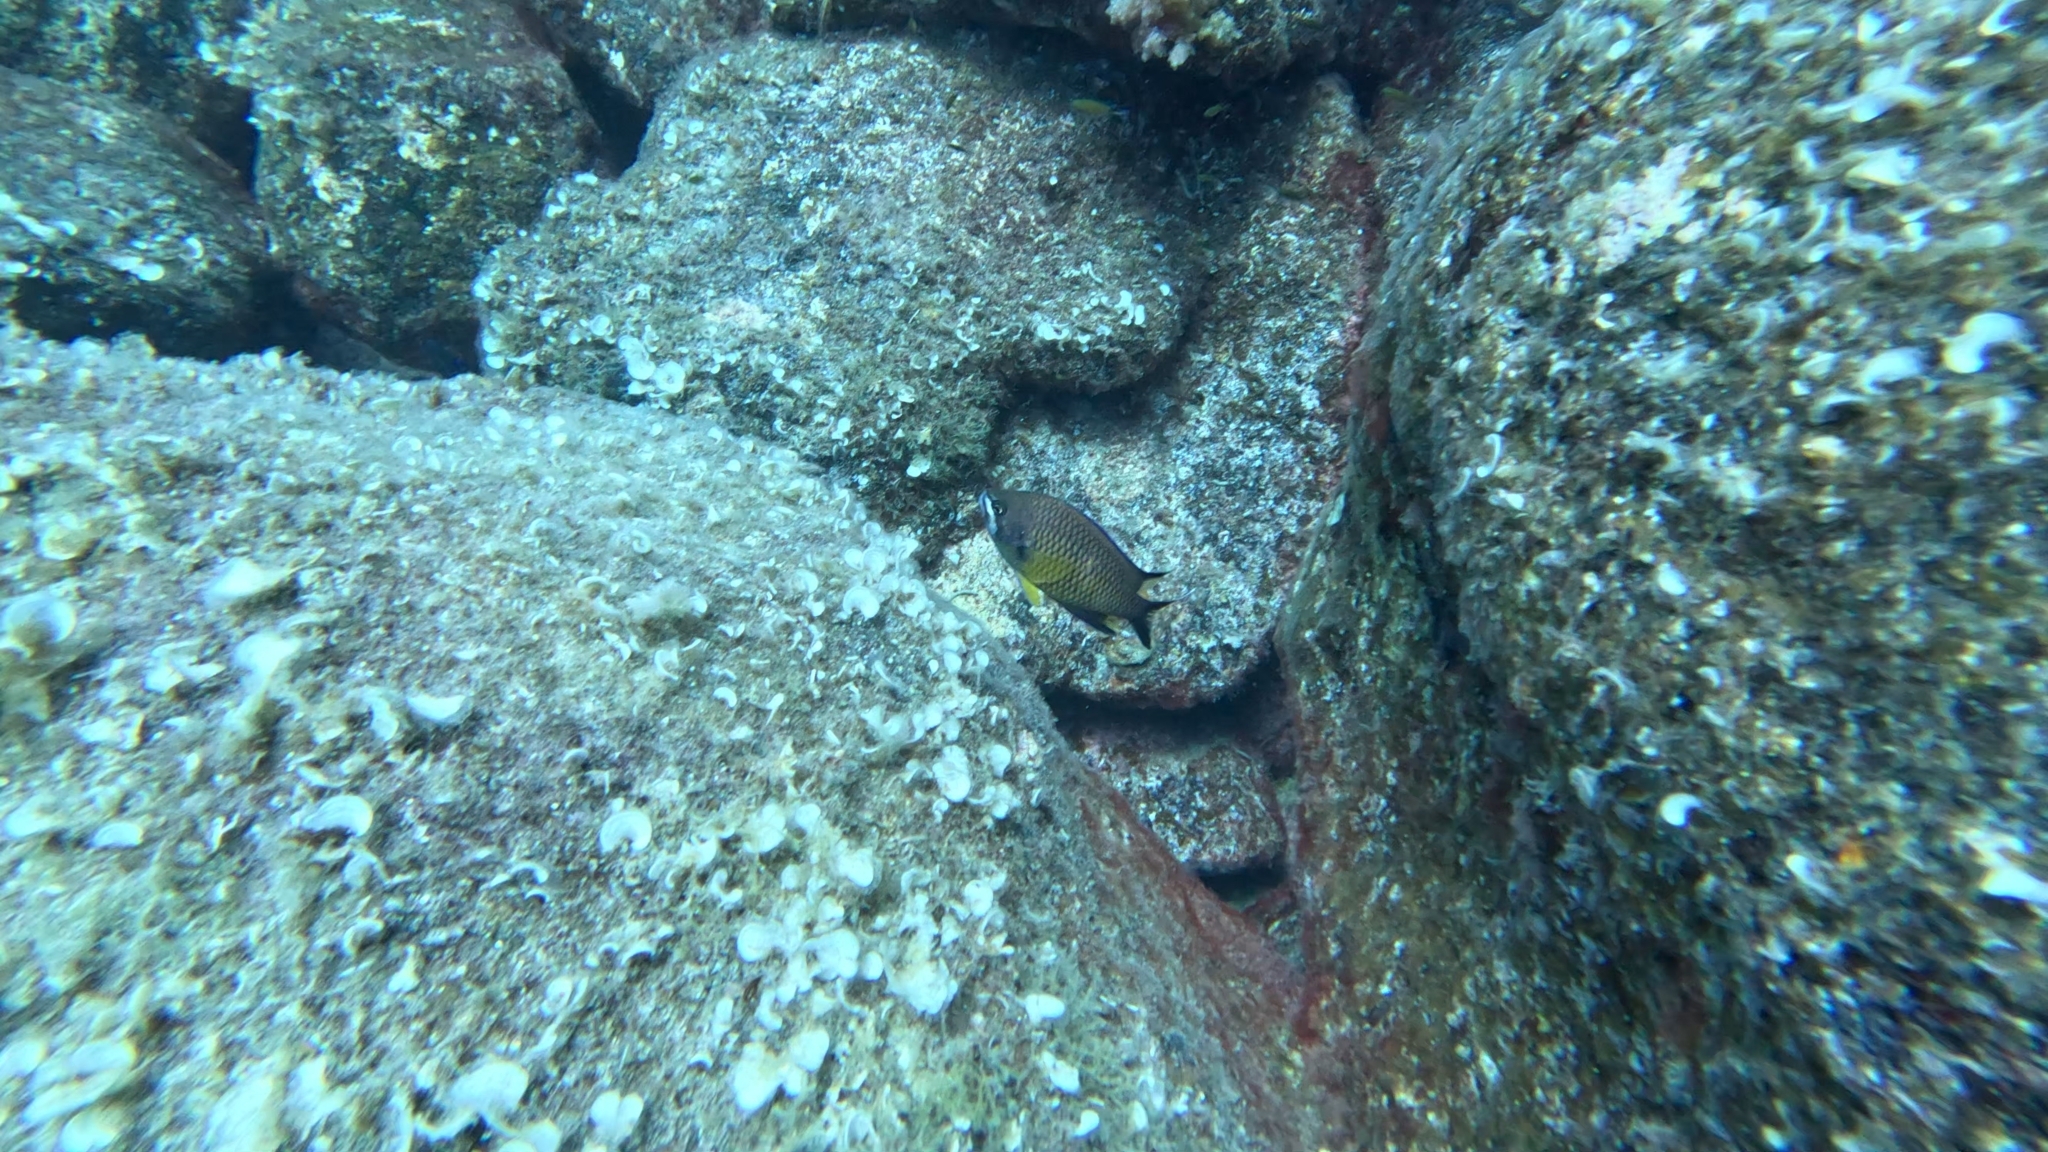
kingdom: Animalia
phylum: Chordata
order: Perciformes
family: Pomacentridae
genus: Chromis
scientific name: Chromis limbata
